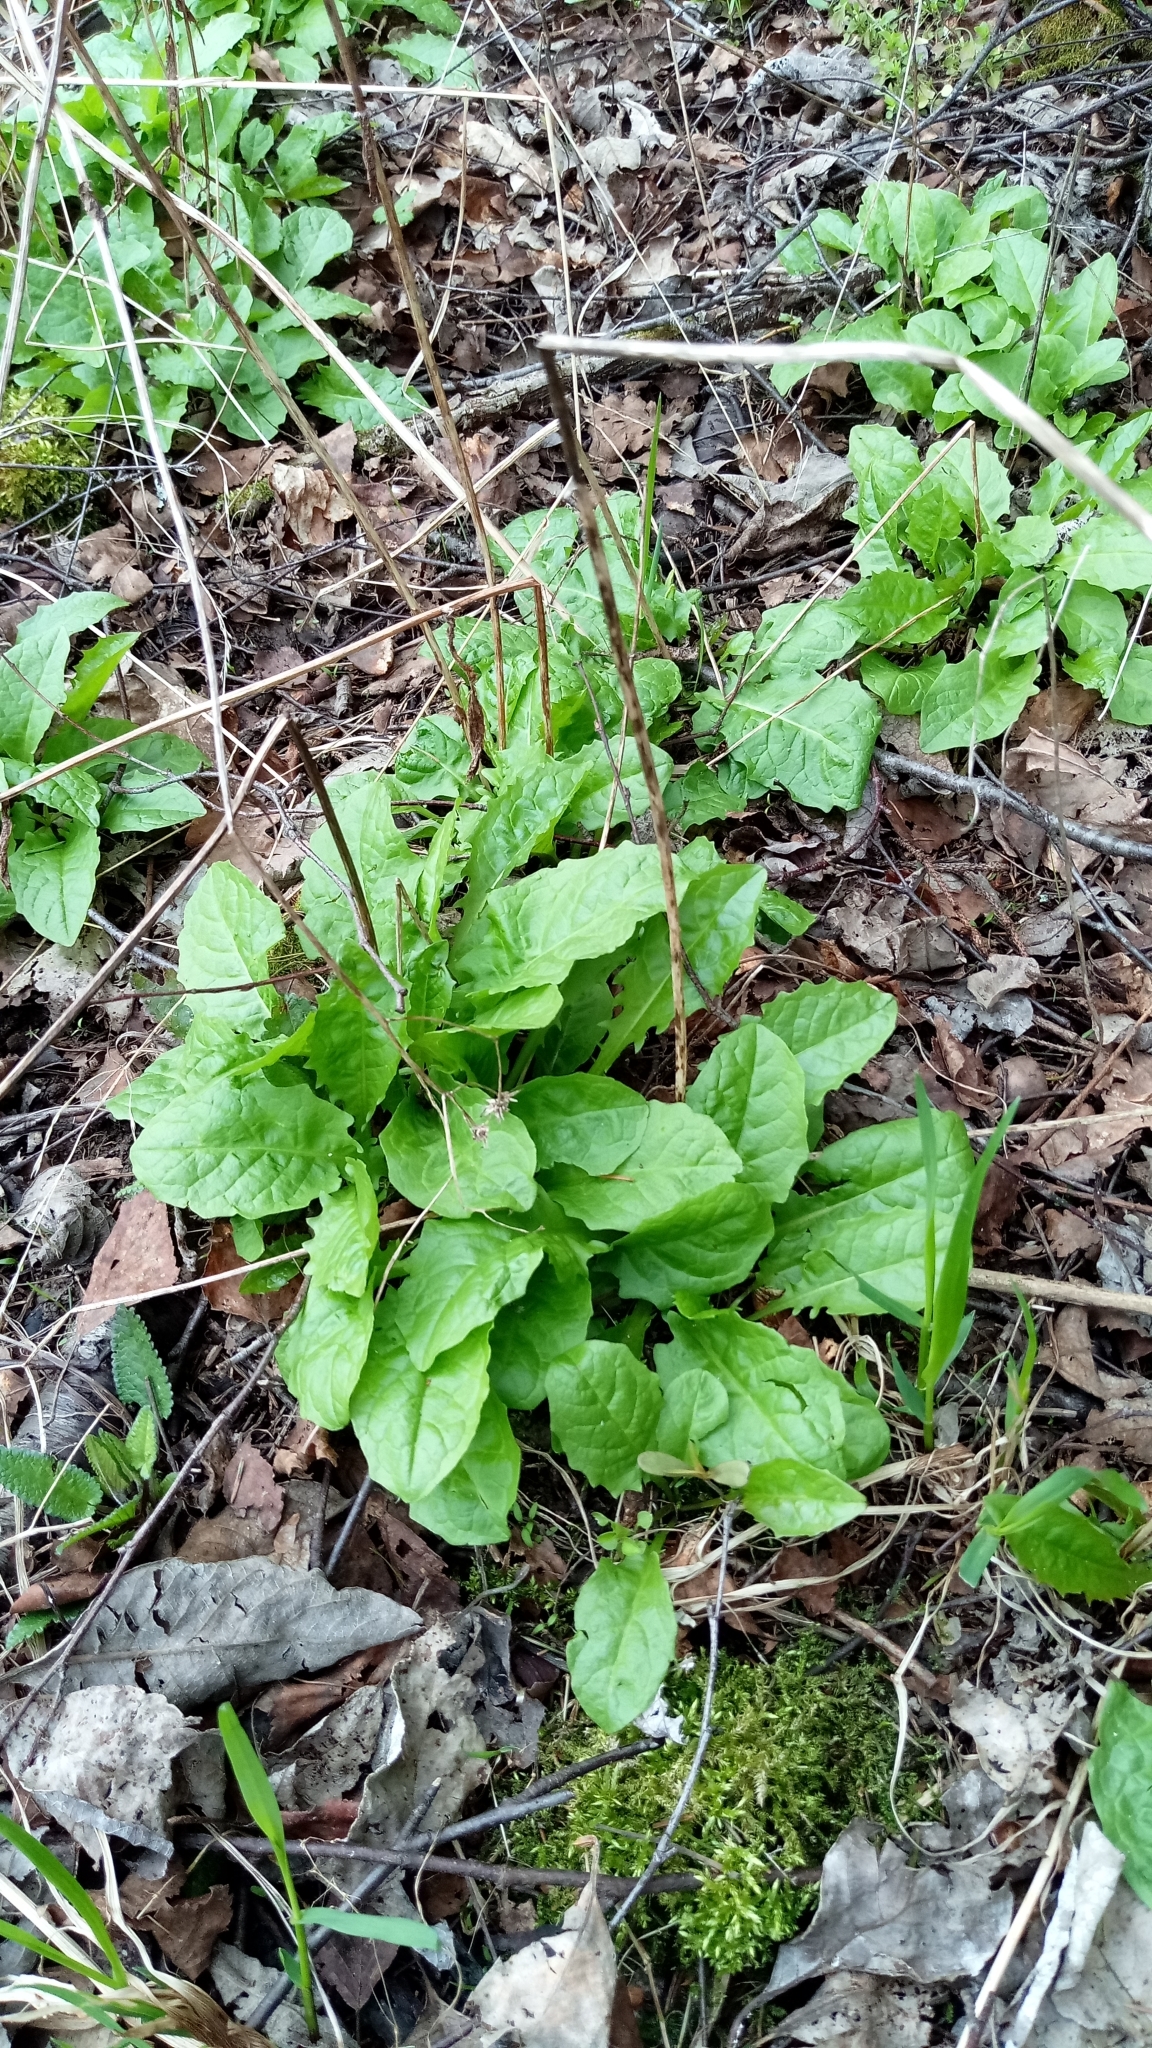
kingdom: Plantae
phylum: Tracheophyta
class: Magnoliopsida
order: Asterales
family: Asteraceae
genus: Crepis
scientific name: Crepis paludosa
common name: Marsh hawk's-beard
